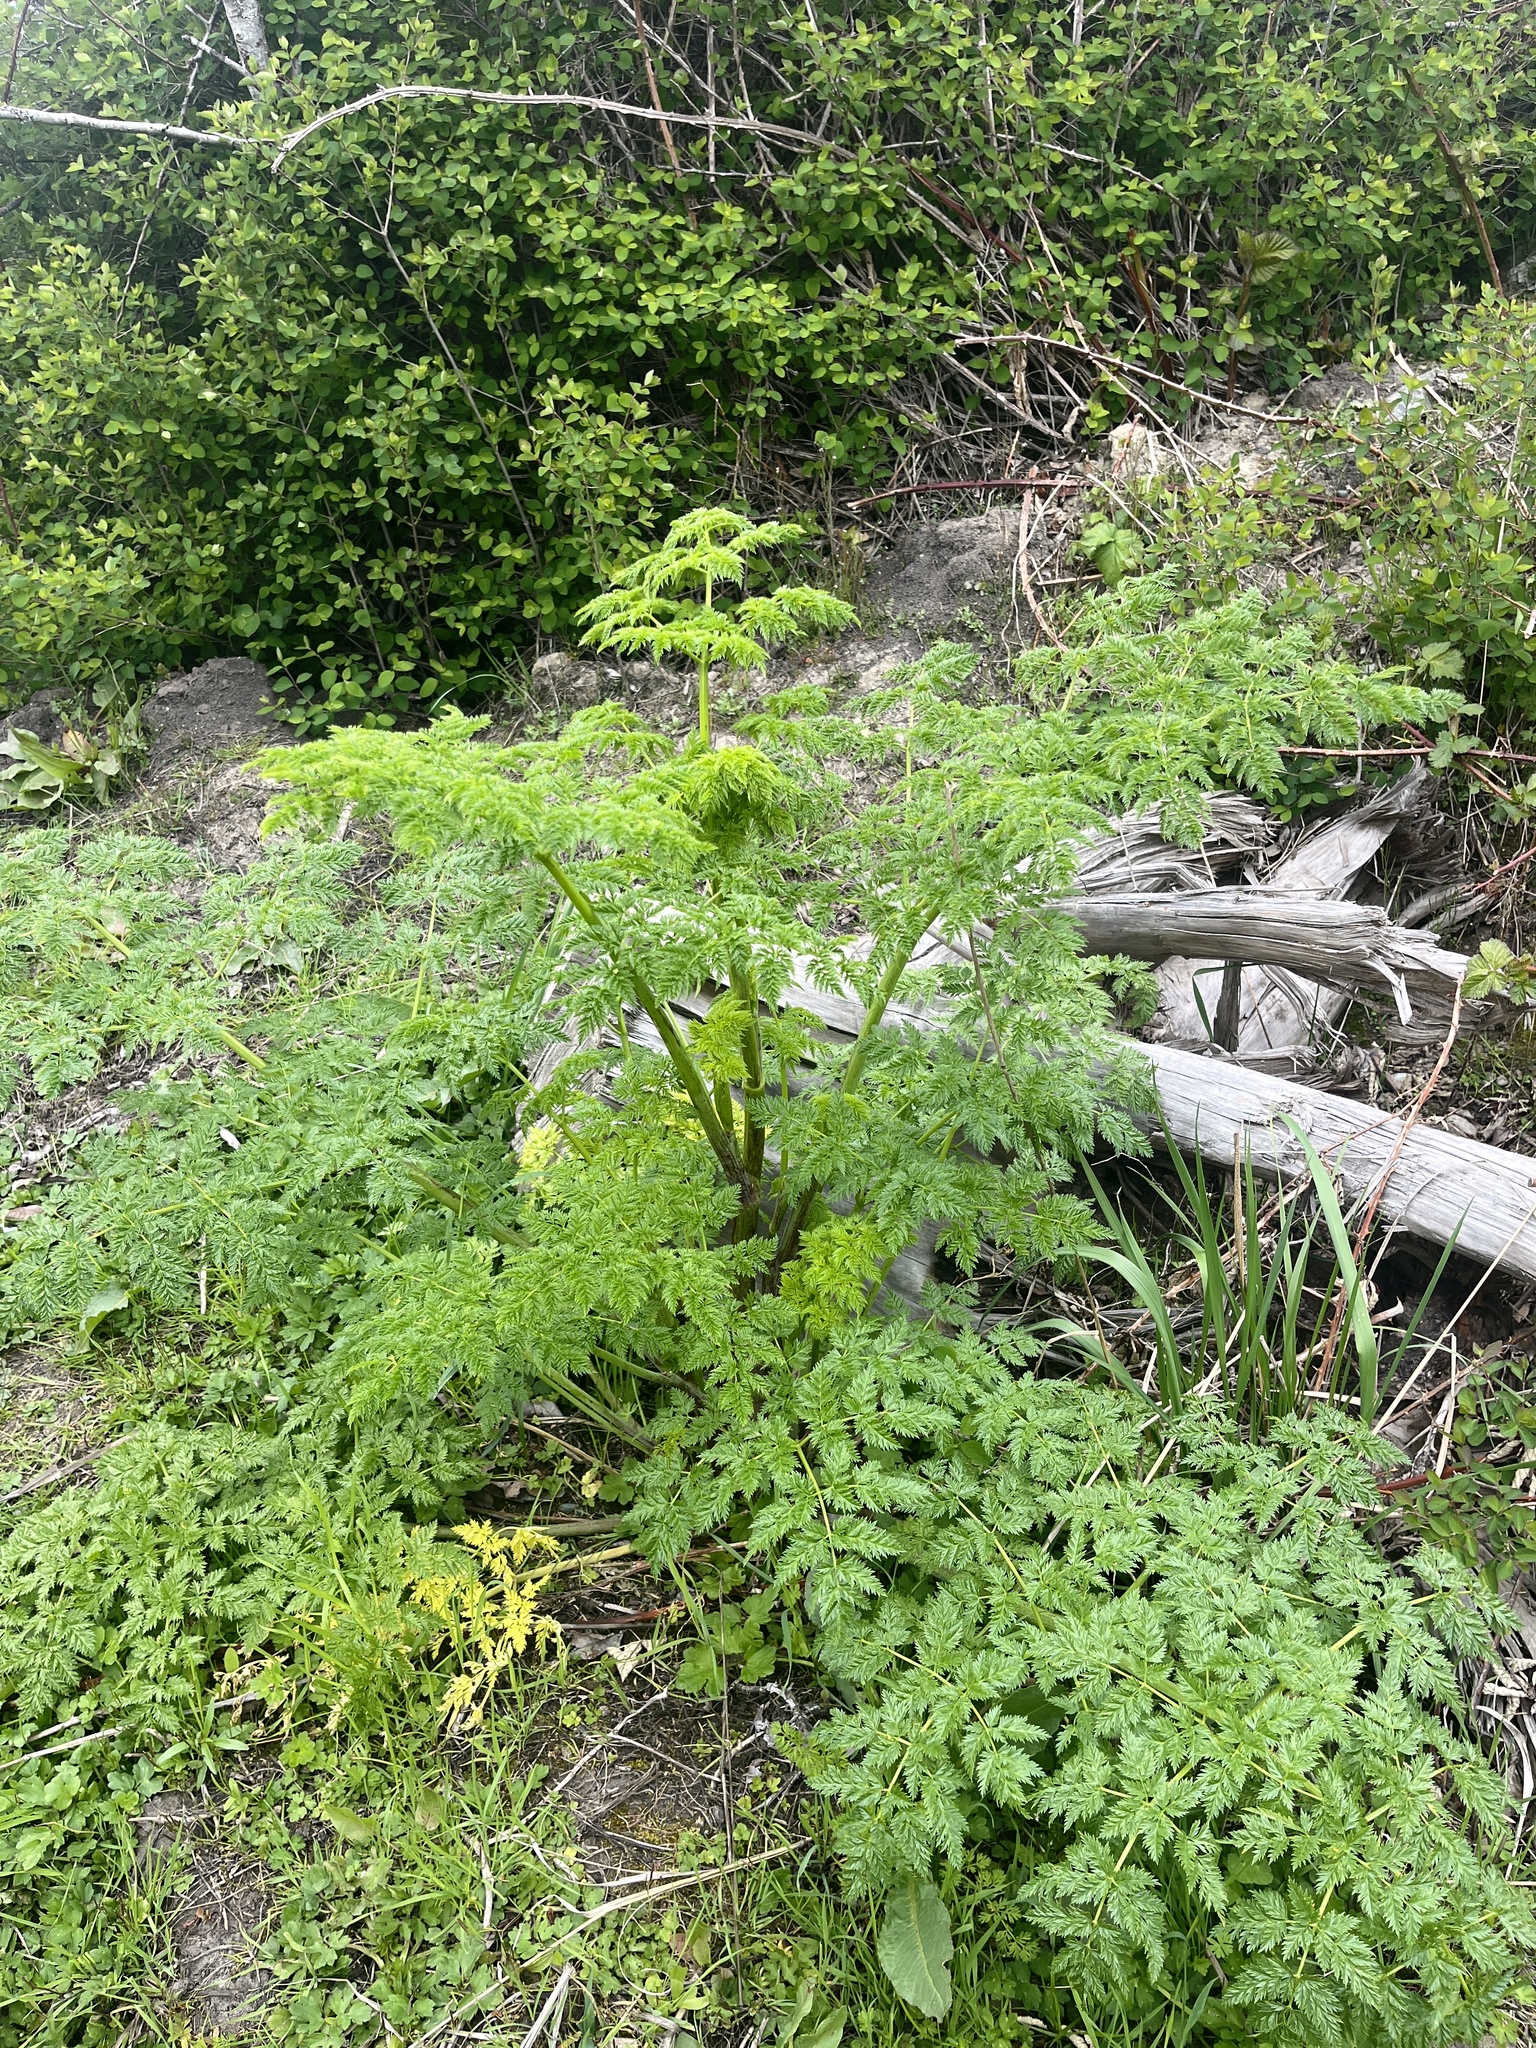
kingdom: Plantae
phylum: Tracheophyta
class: Magnoliopsida
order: Apiales
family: Apiaceae
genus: Conium
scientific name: Conium maculatum
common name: Hemlock
